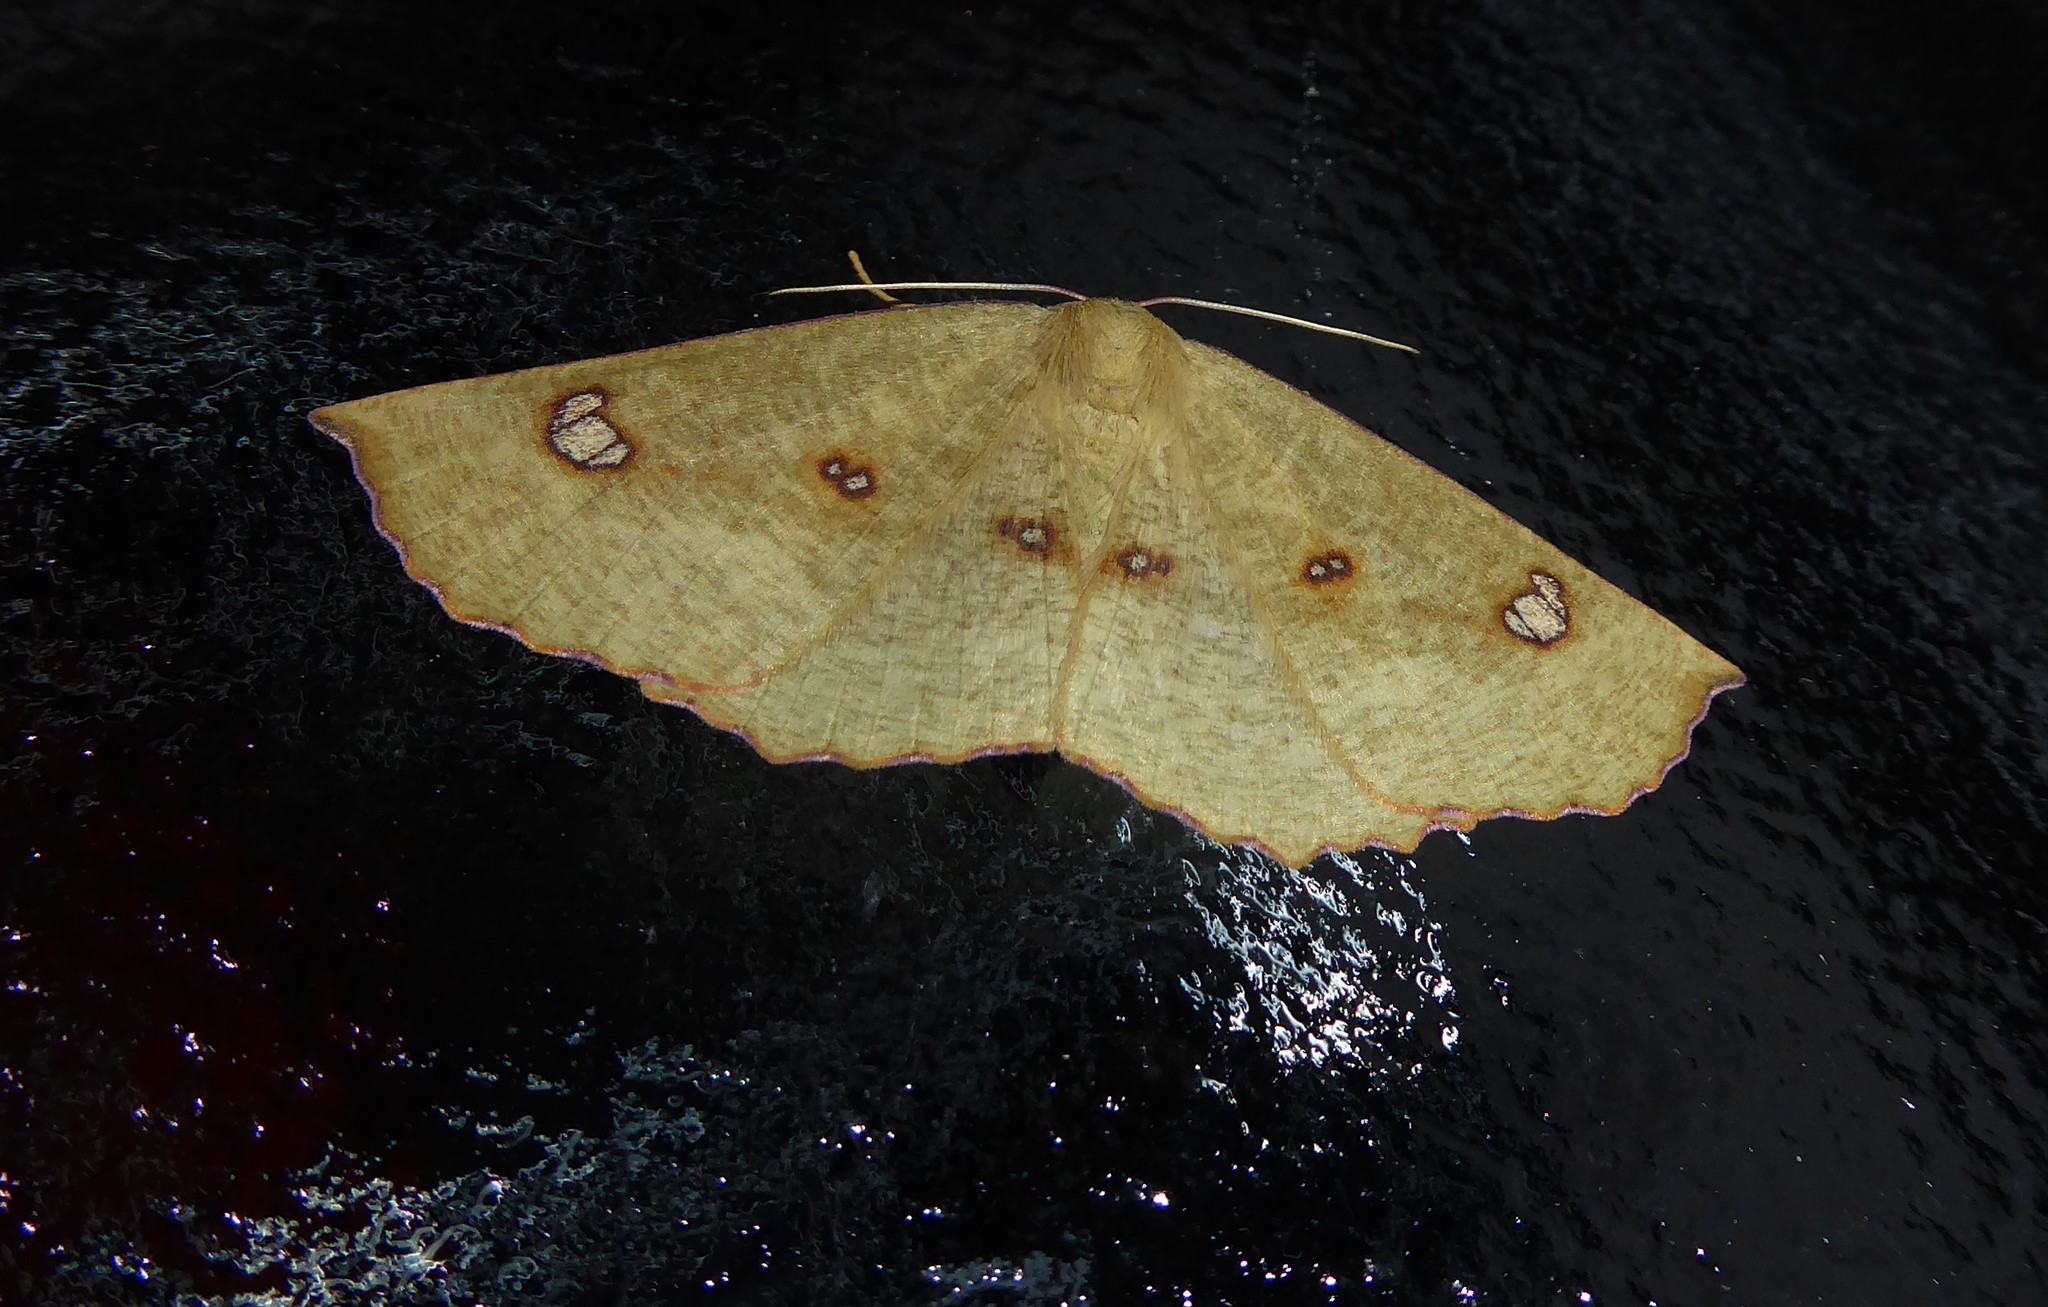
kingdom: Animalia
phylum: Arthropoda
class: Insecta
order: Lepidoptera
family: Geometridae
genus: Xyridacma
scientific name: Xyridacma alectoraria
